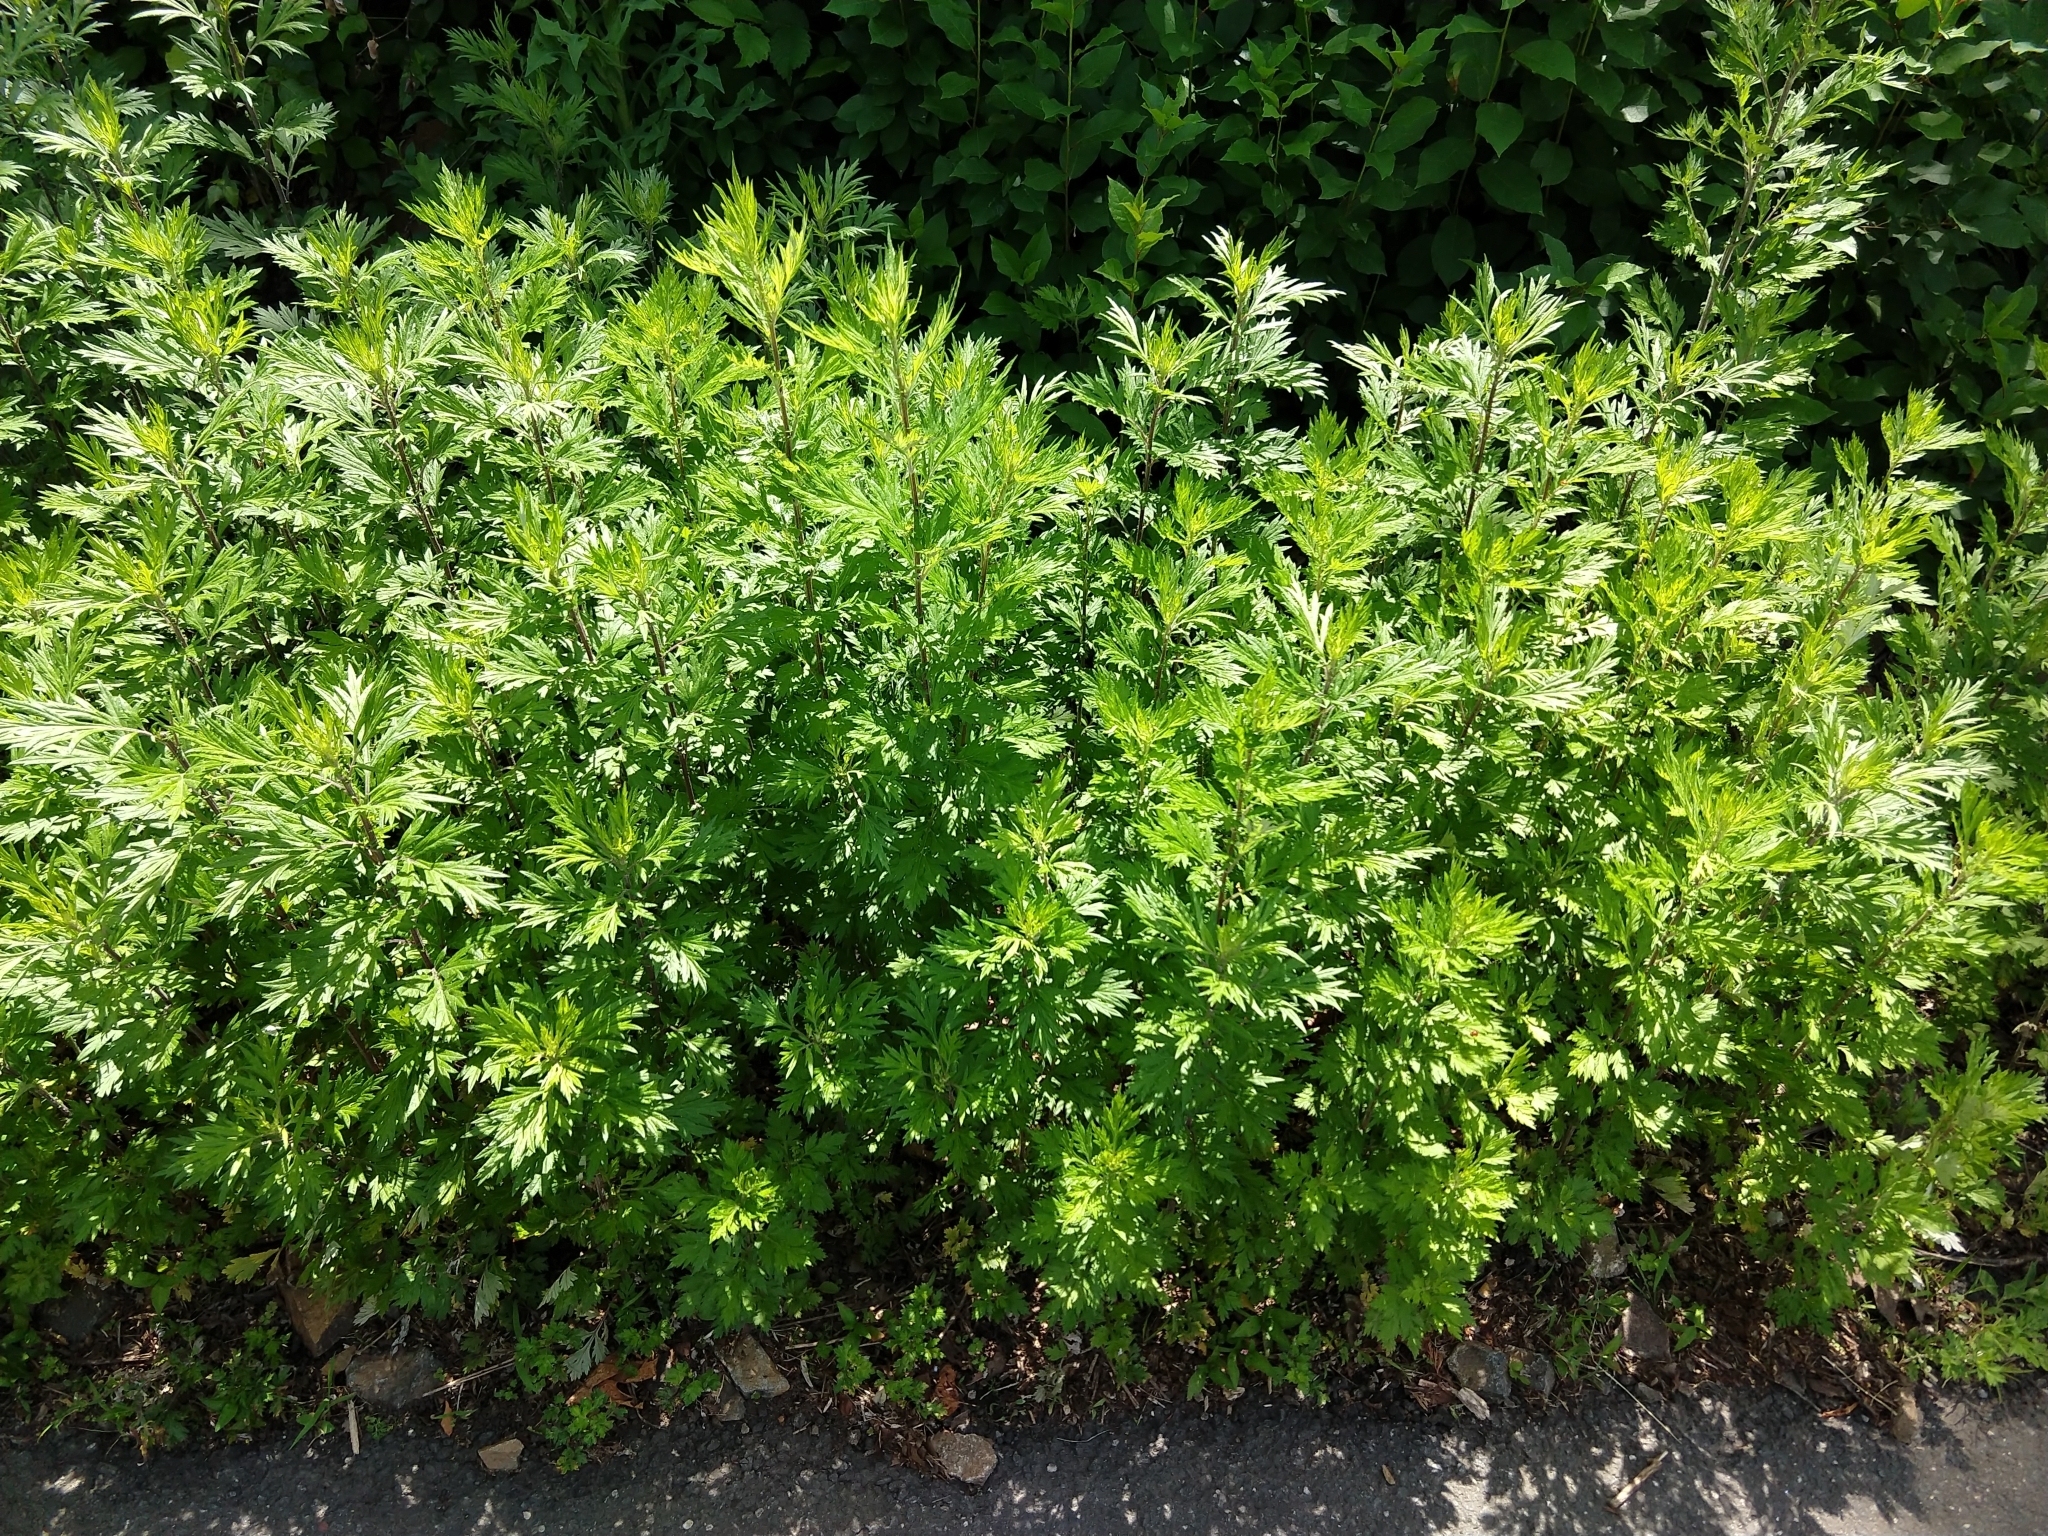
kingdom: Plantae
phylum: Tracheophyta
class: Magnoliopsida
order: Asterales
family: Asteraceae
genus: Artemisia
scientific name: Artemisia vulgaris
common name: Mugwort
